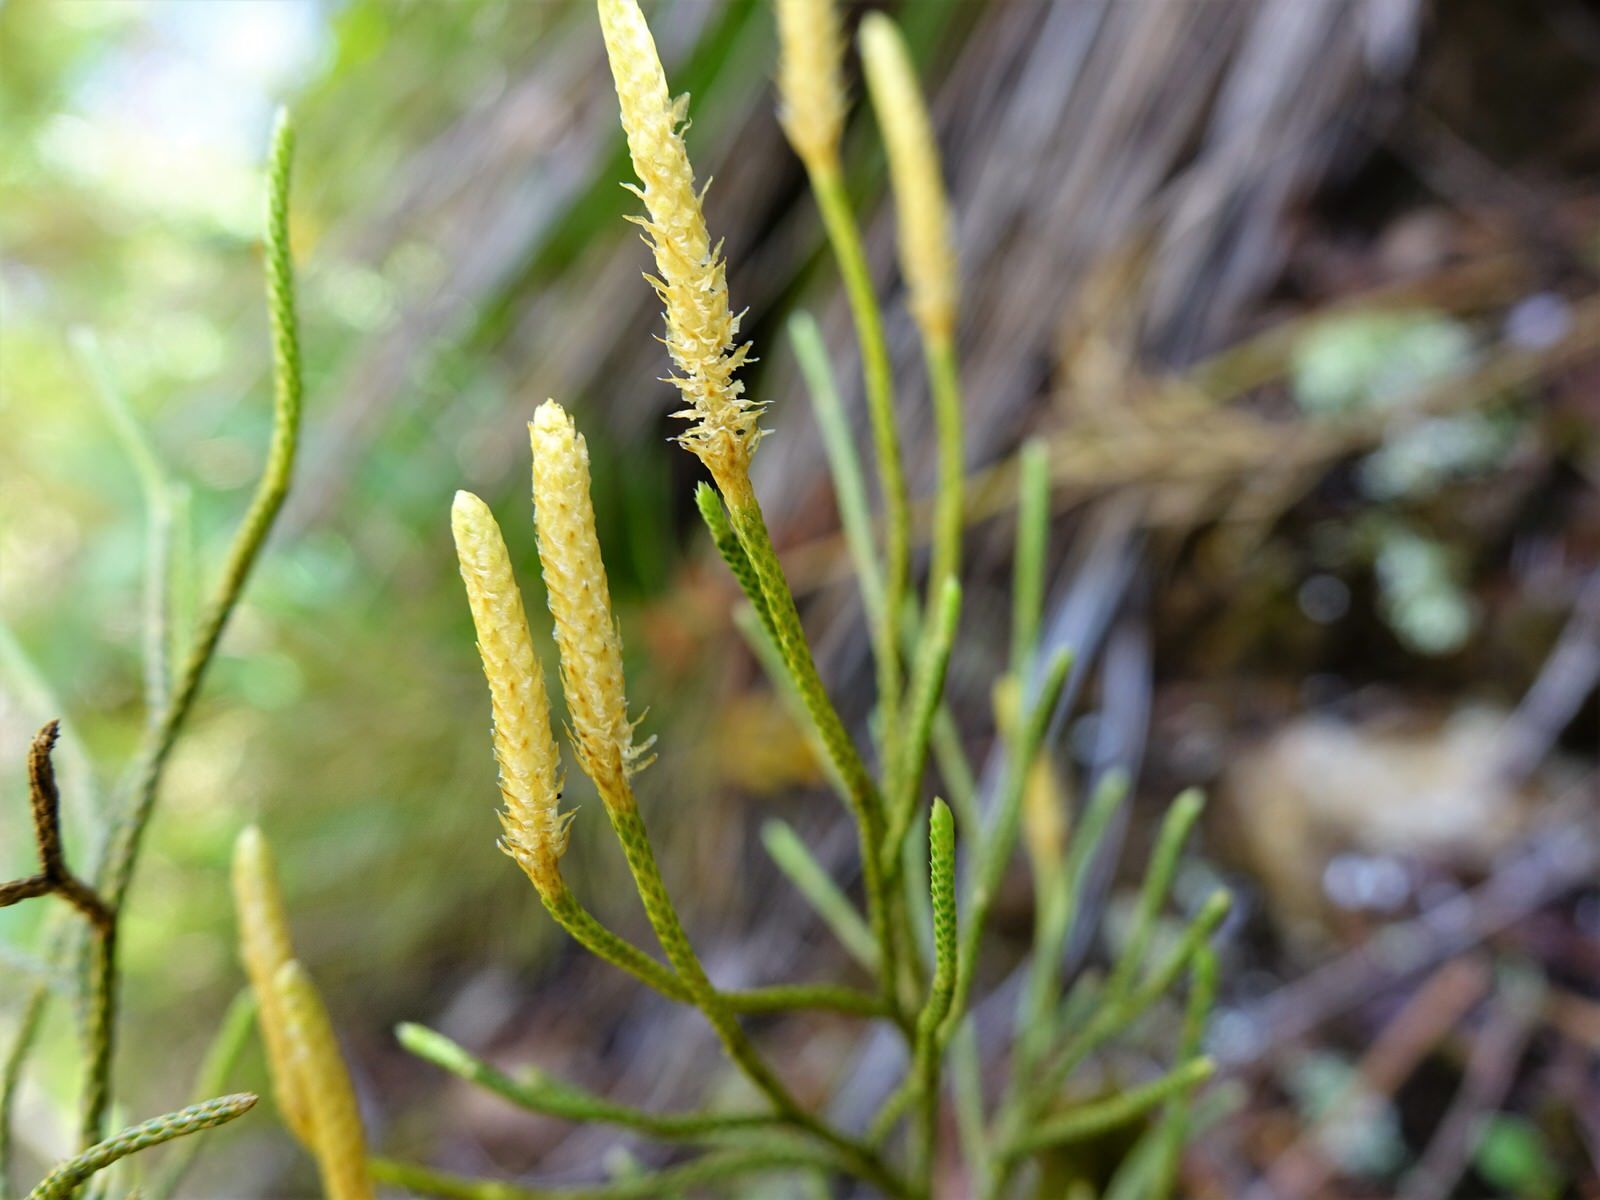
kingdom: Plantae
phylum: Tracheophyta
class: Lycopodiopsida
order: Lycopodiales
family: Lycopodiaceae
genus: Pseudolycopodium
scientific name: Pseudolycopodium densum
